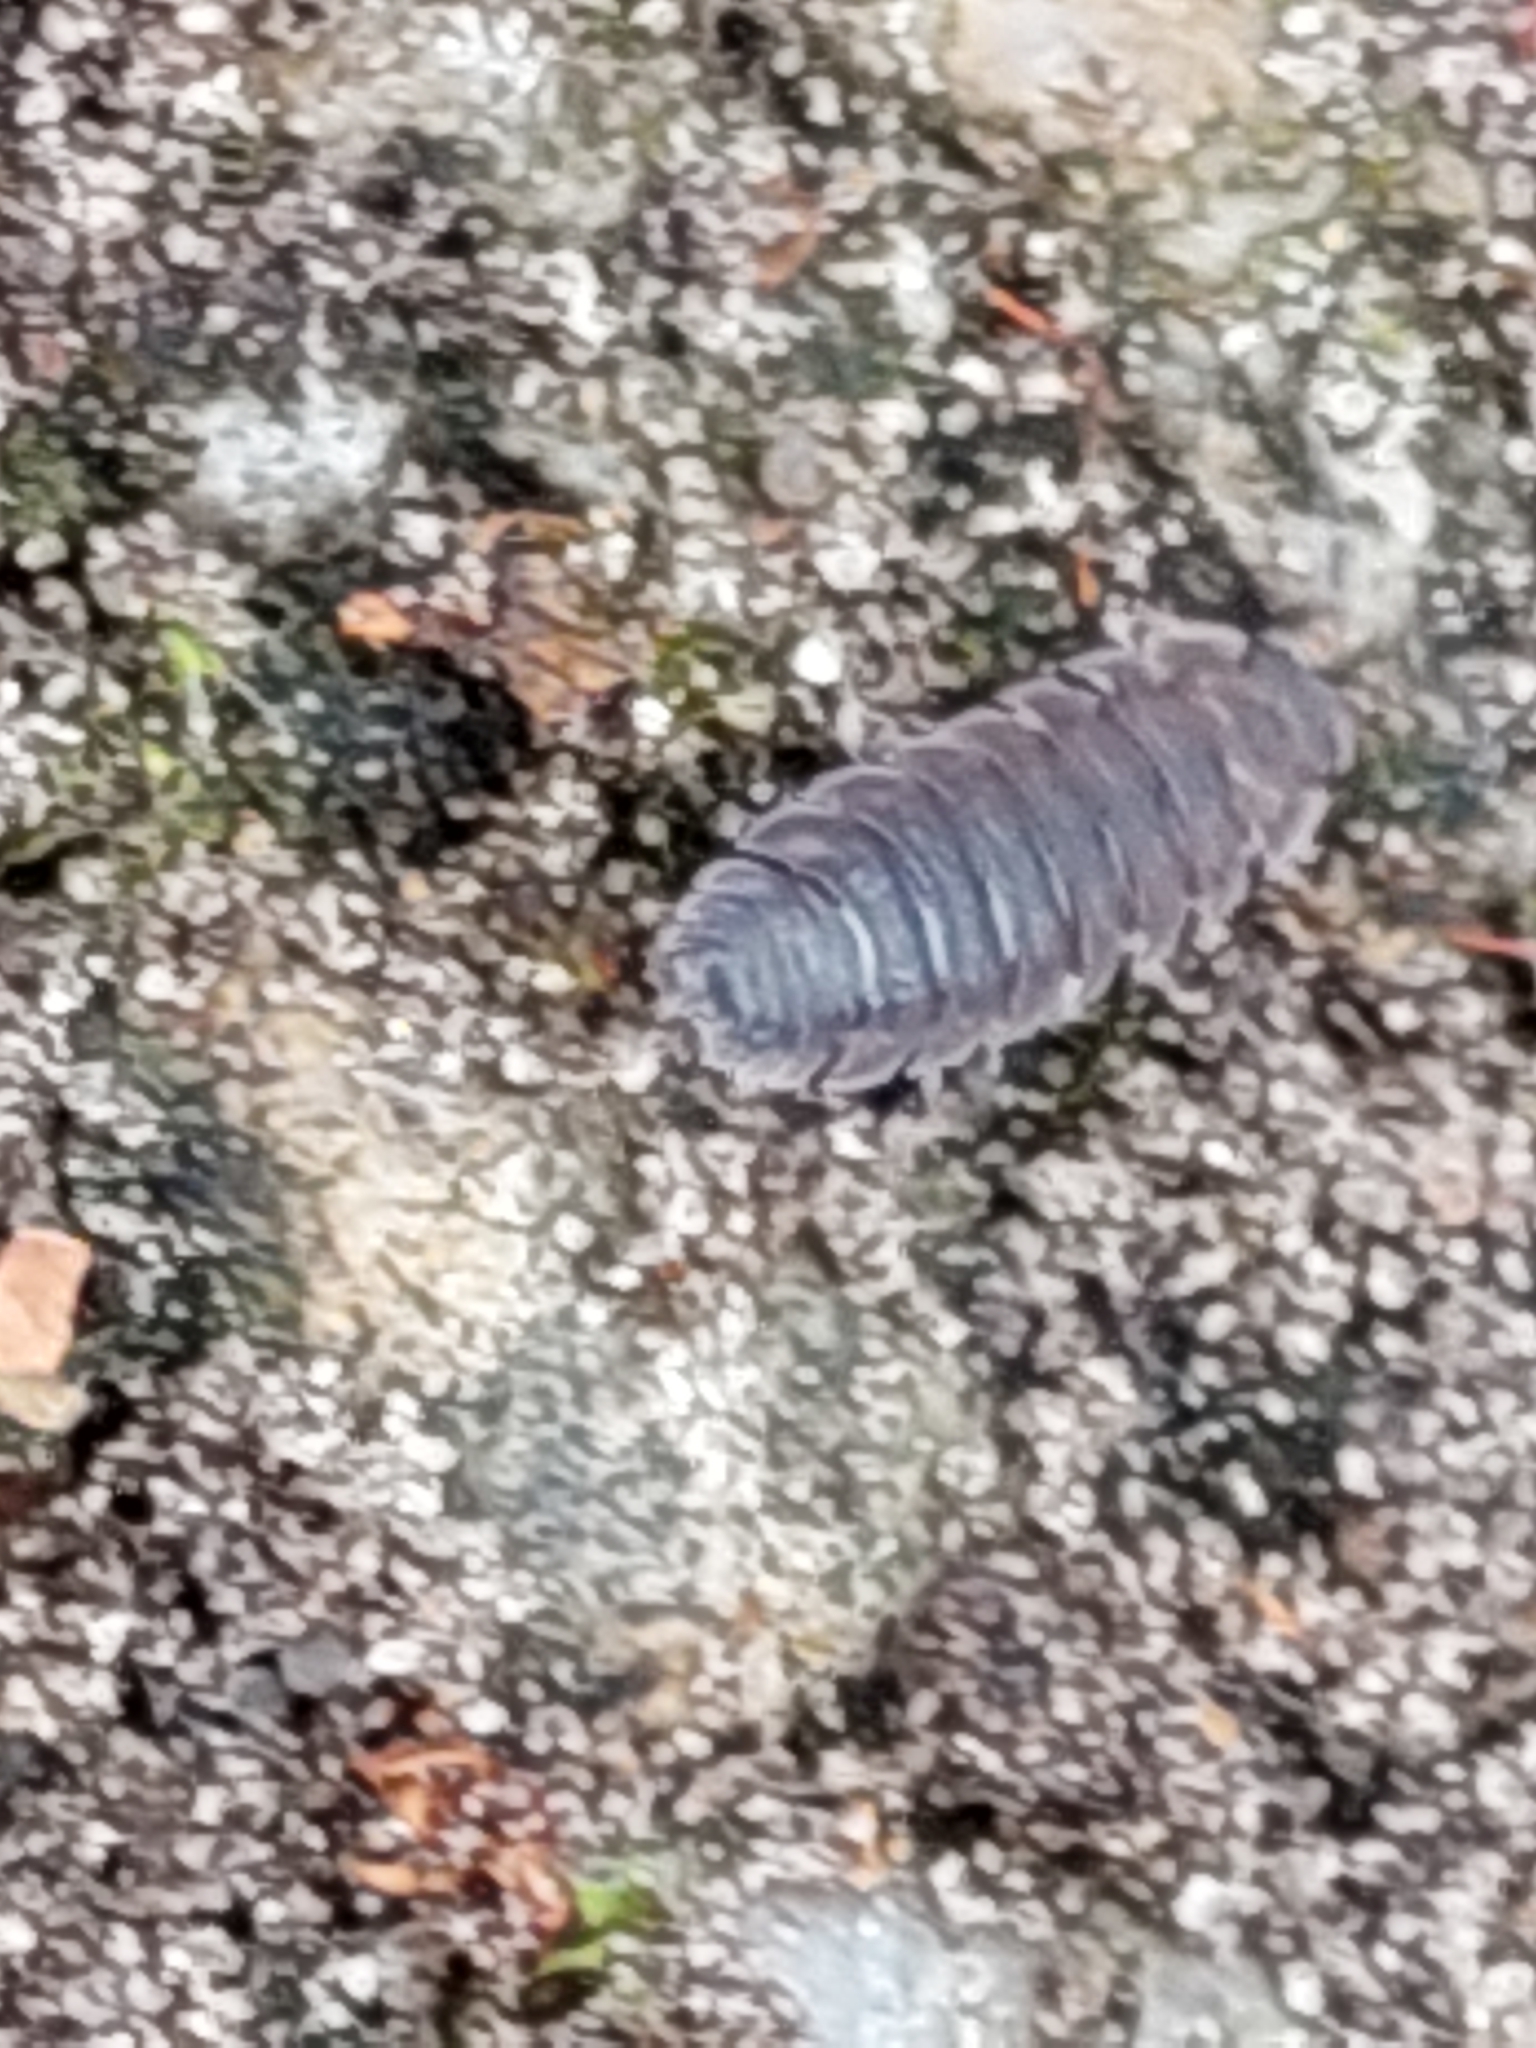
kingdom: Animalia
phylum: Arthropoda
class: Malacostraca
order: Isopoda
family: Porcellionidae
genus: Porcellio
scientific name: Porcellio scaber
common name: Common rough woodlouse
